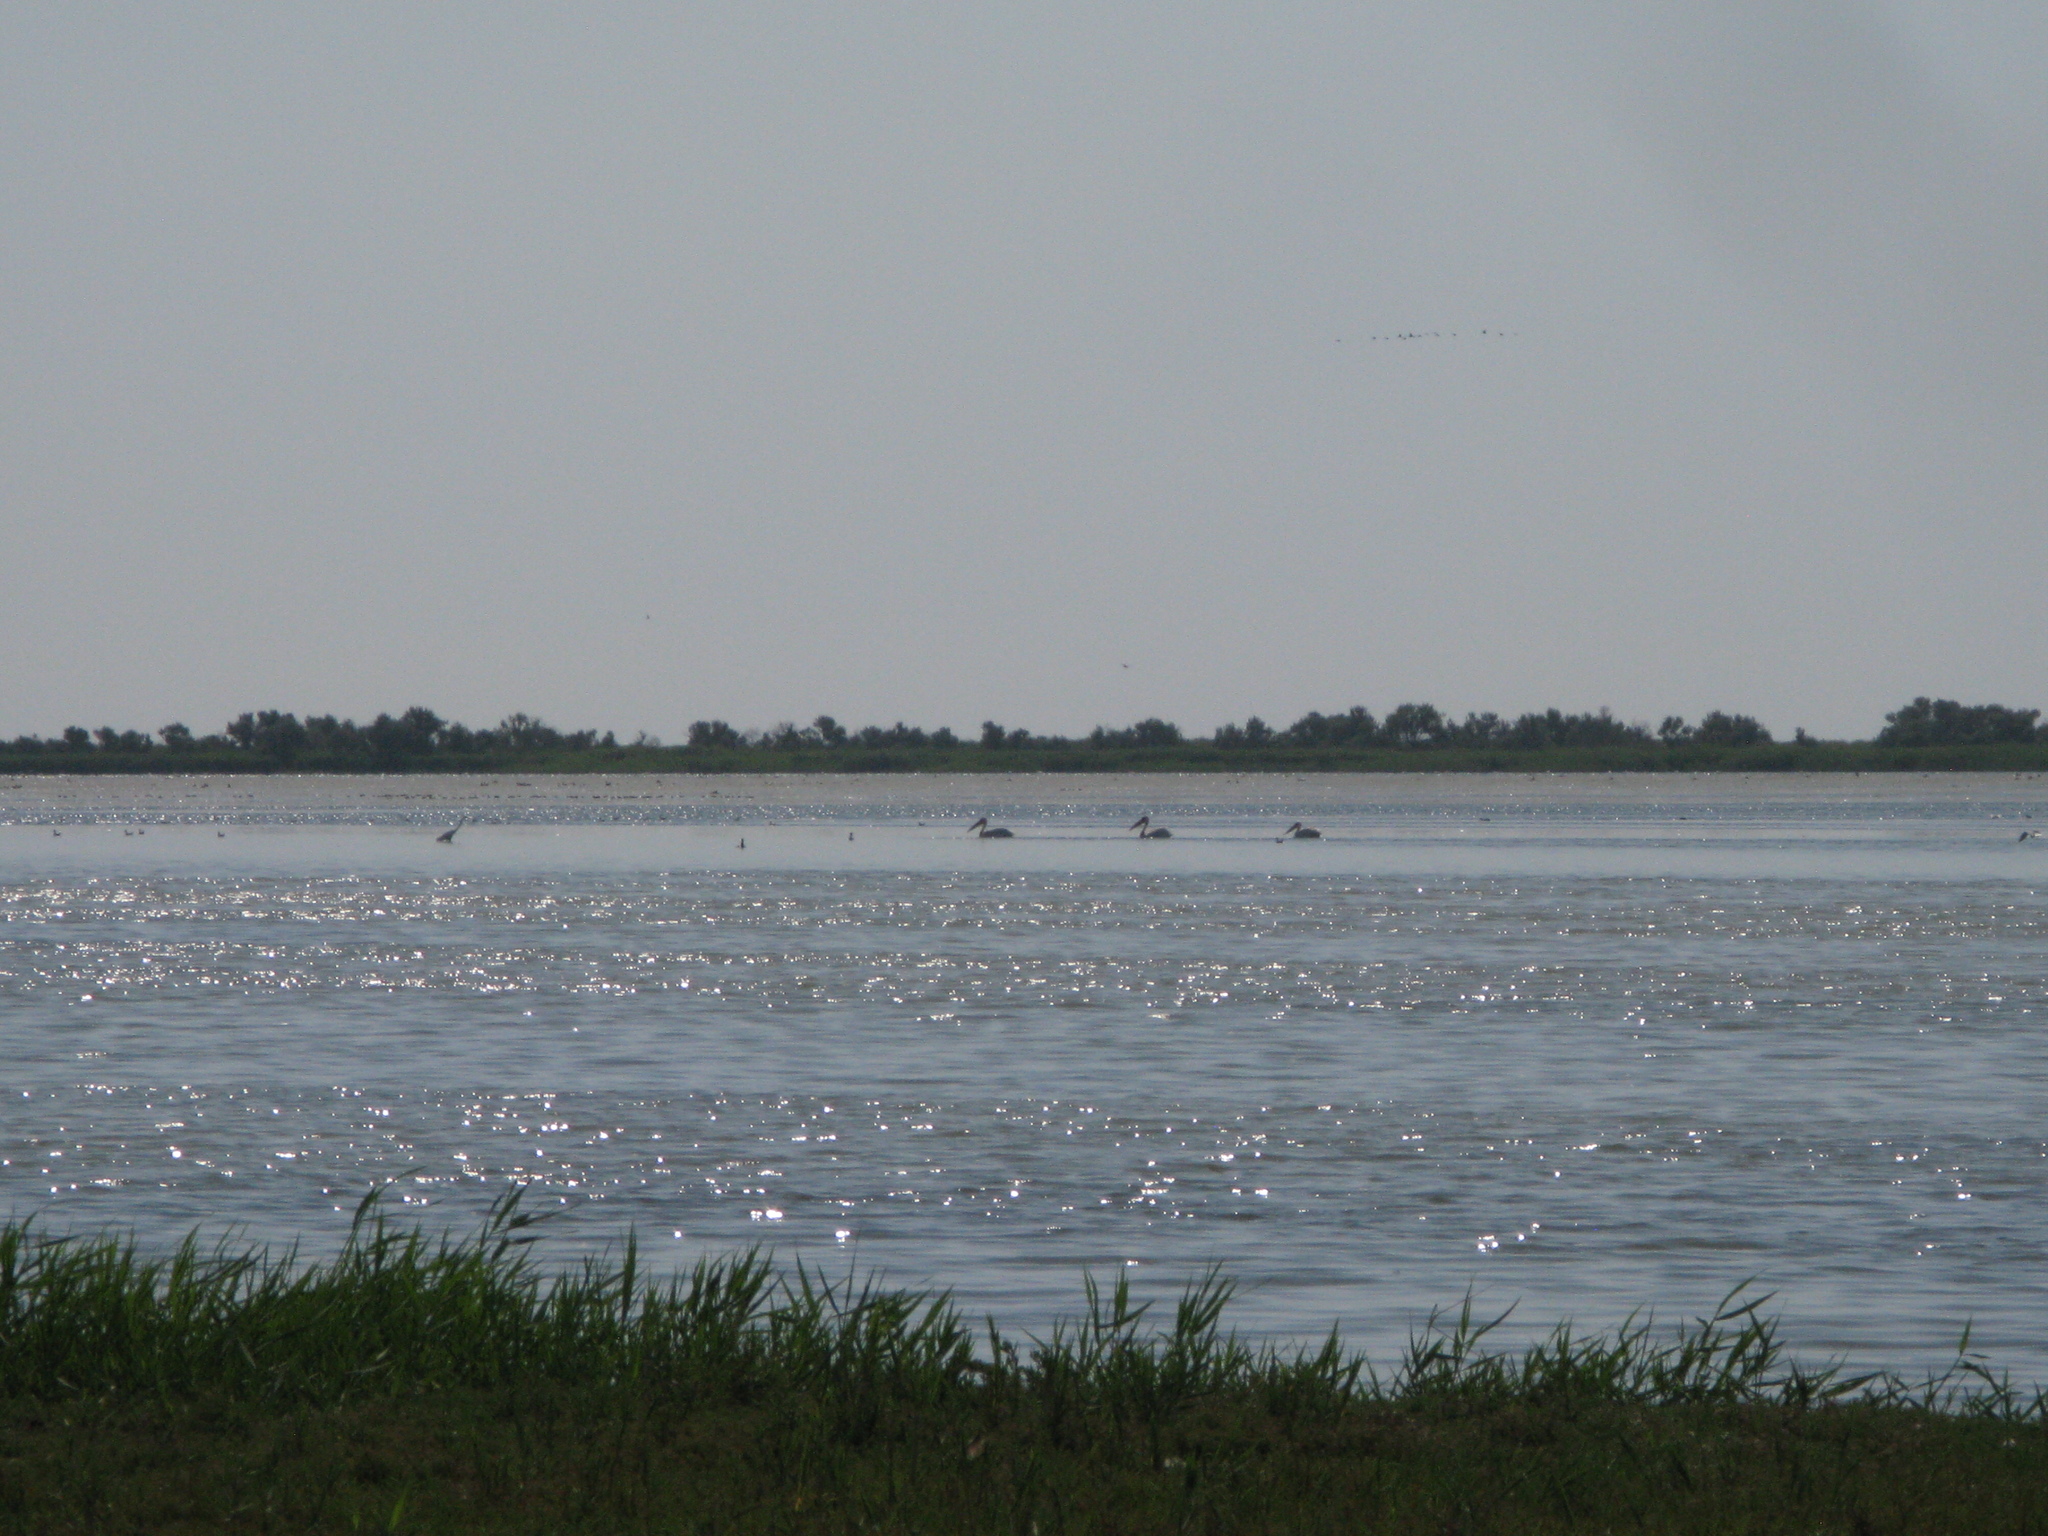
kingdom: Animalia
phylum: Chordata
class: Aves
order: Pelecaniformes
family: Pelecanidae
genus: Pelecanus
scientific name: Pelecanus onocrotalus
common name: Great white pelican
